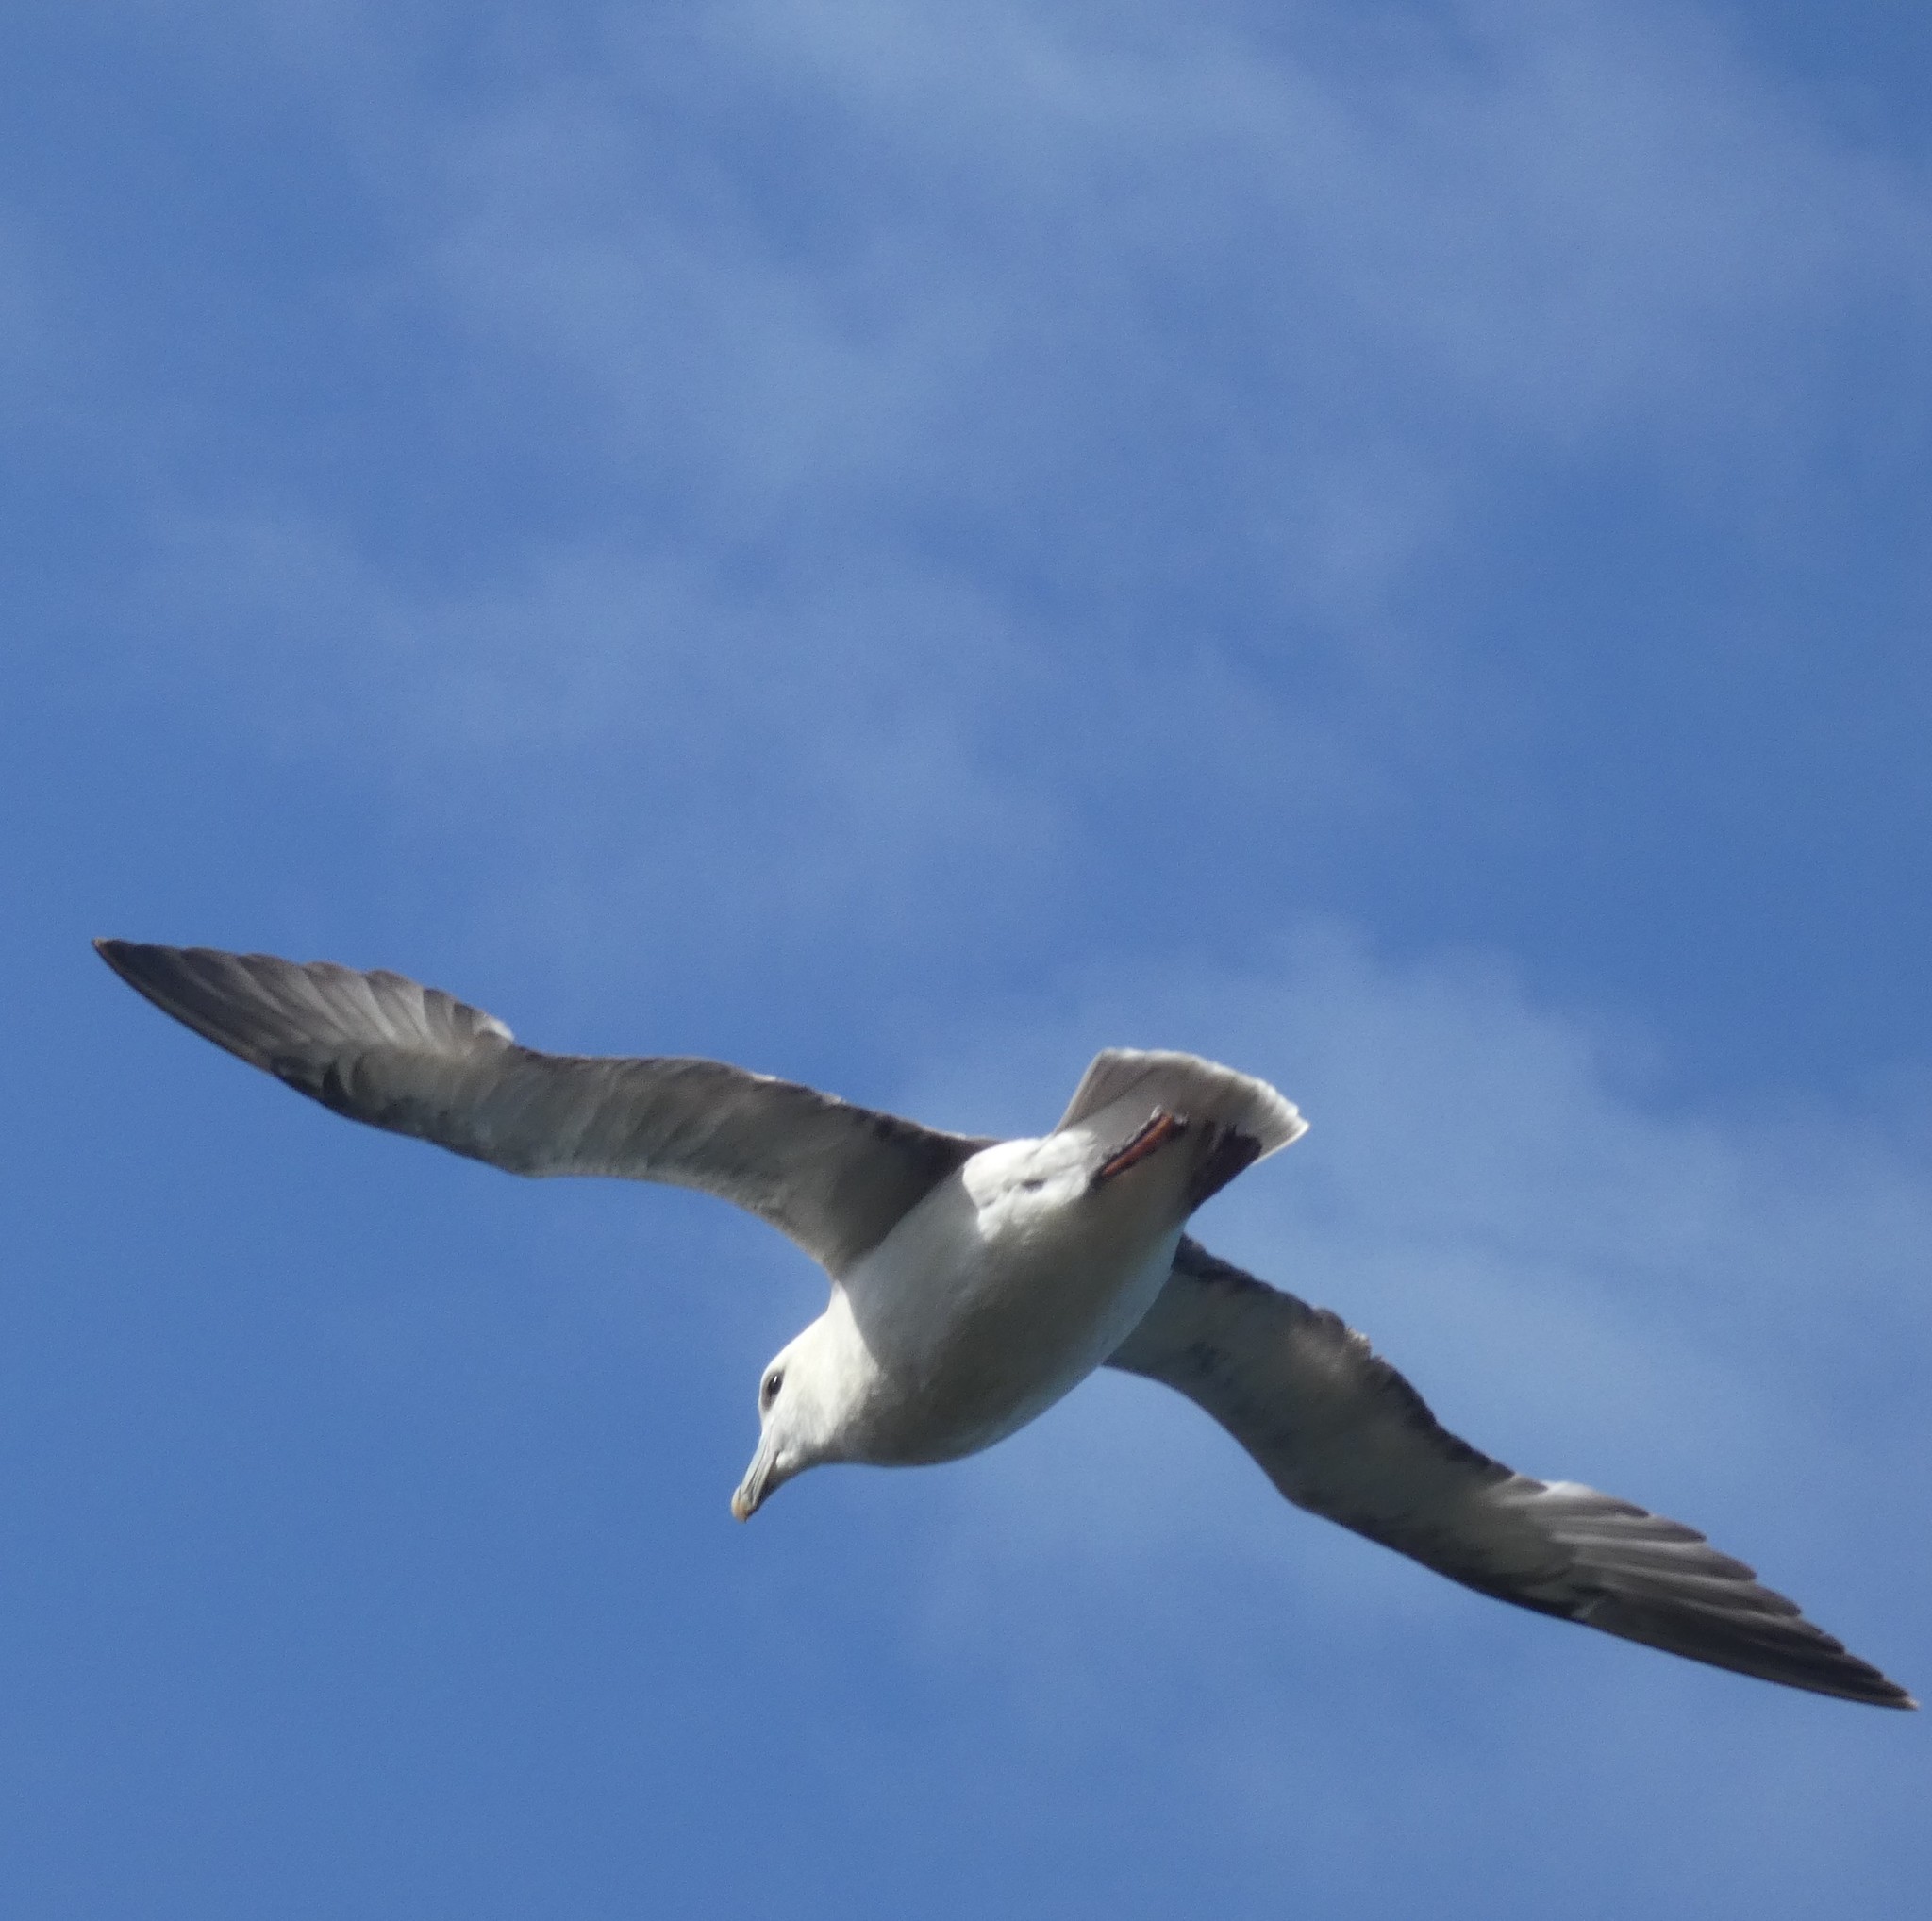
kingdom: Animalia
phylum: Chordata
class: Aves
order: Procellariiformes
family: Procellariidae
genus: Fulmarus
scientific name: Fulmarus glacialis
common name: Northern fulmar
